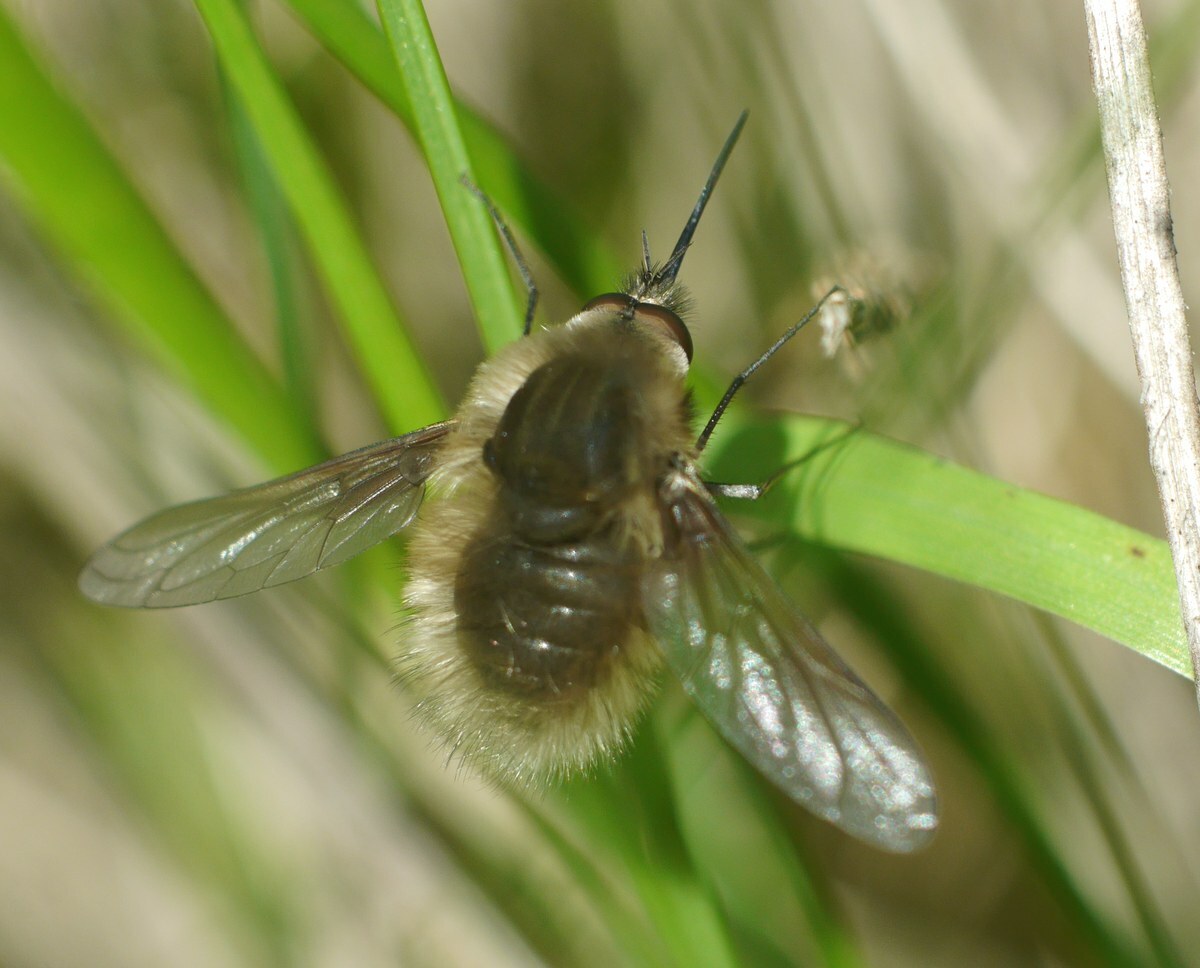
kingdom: Animalia
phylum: Arthropoda
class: Insecta
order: Diptera
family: Bombyliidae
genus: Bombylius
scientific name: Bombylius major
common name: Bee fly
